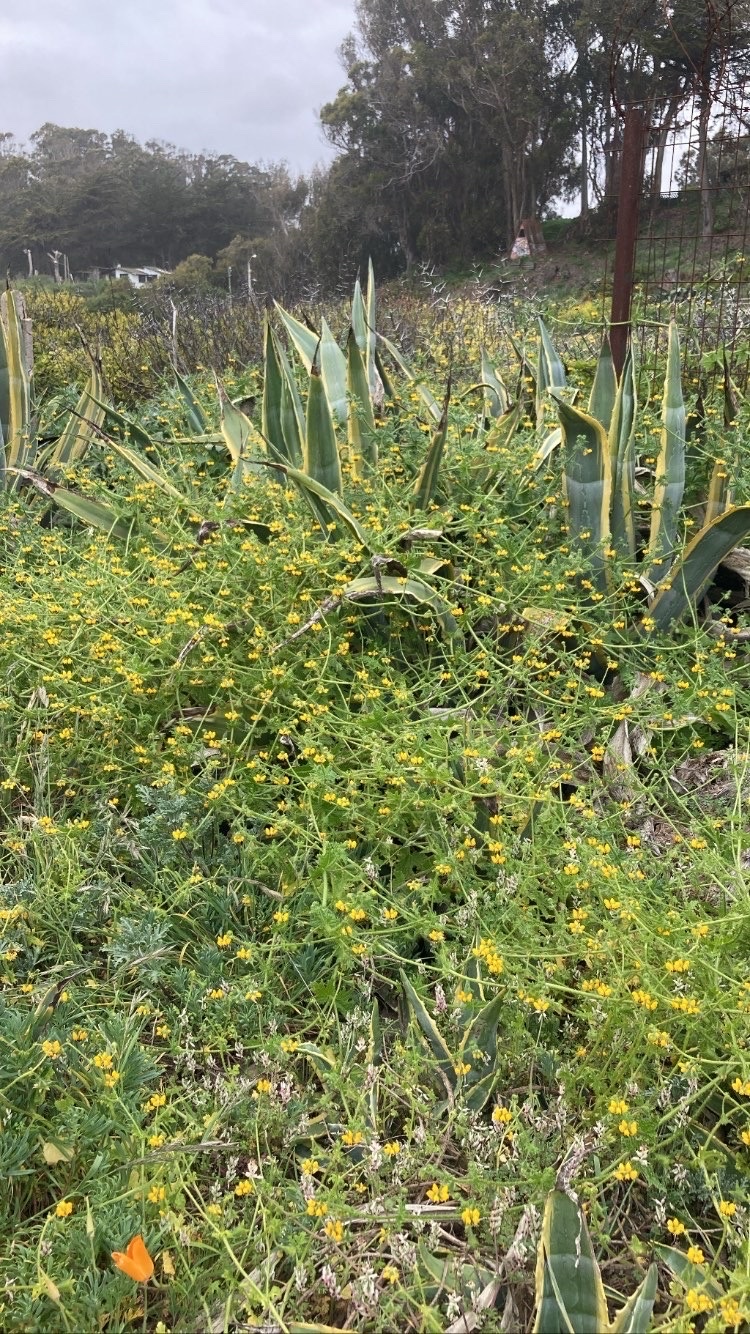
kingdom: Plantae
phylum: Tracheophyta
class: Magnoliopsida
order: Cornales
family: Loasaceae
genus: Loasa
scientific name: Loasa tricolor
